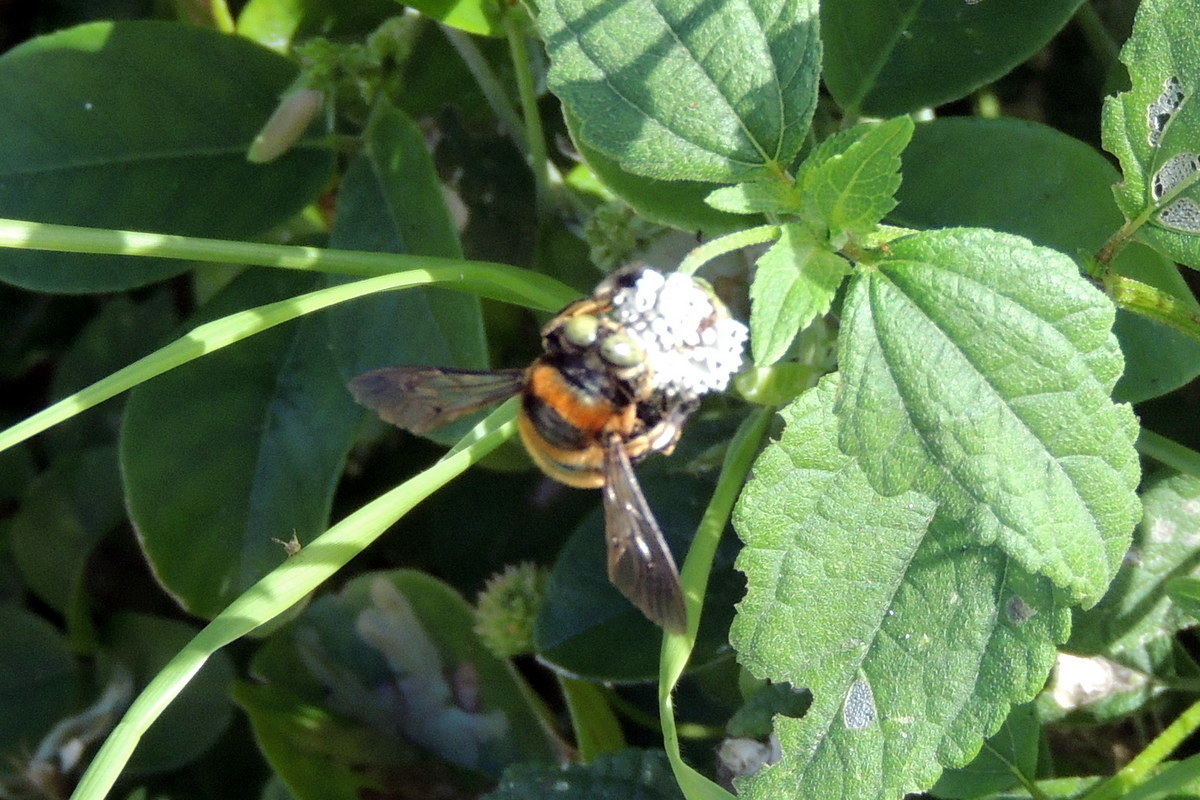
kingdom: Animalia
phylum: Arthropoda
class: Insecta
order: Hymenoptera
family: Apidae
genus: Xylocopa
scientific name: Xylocopa micans
